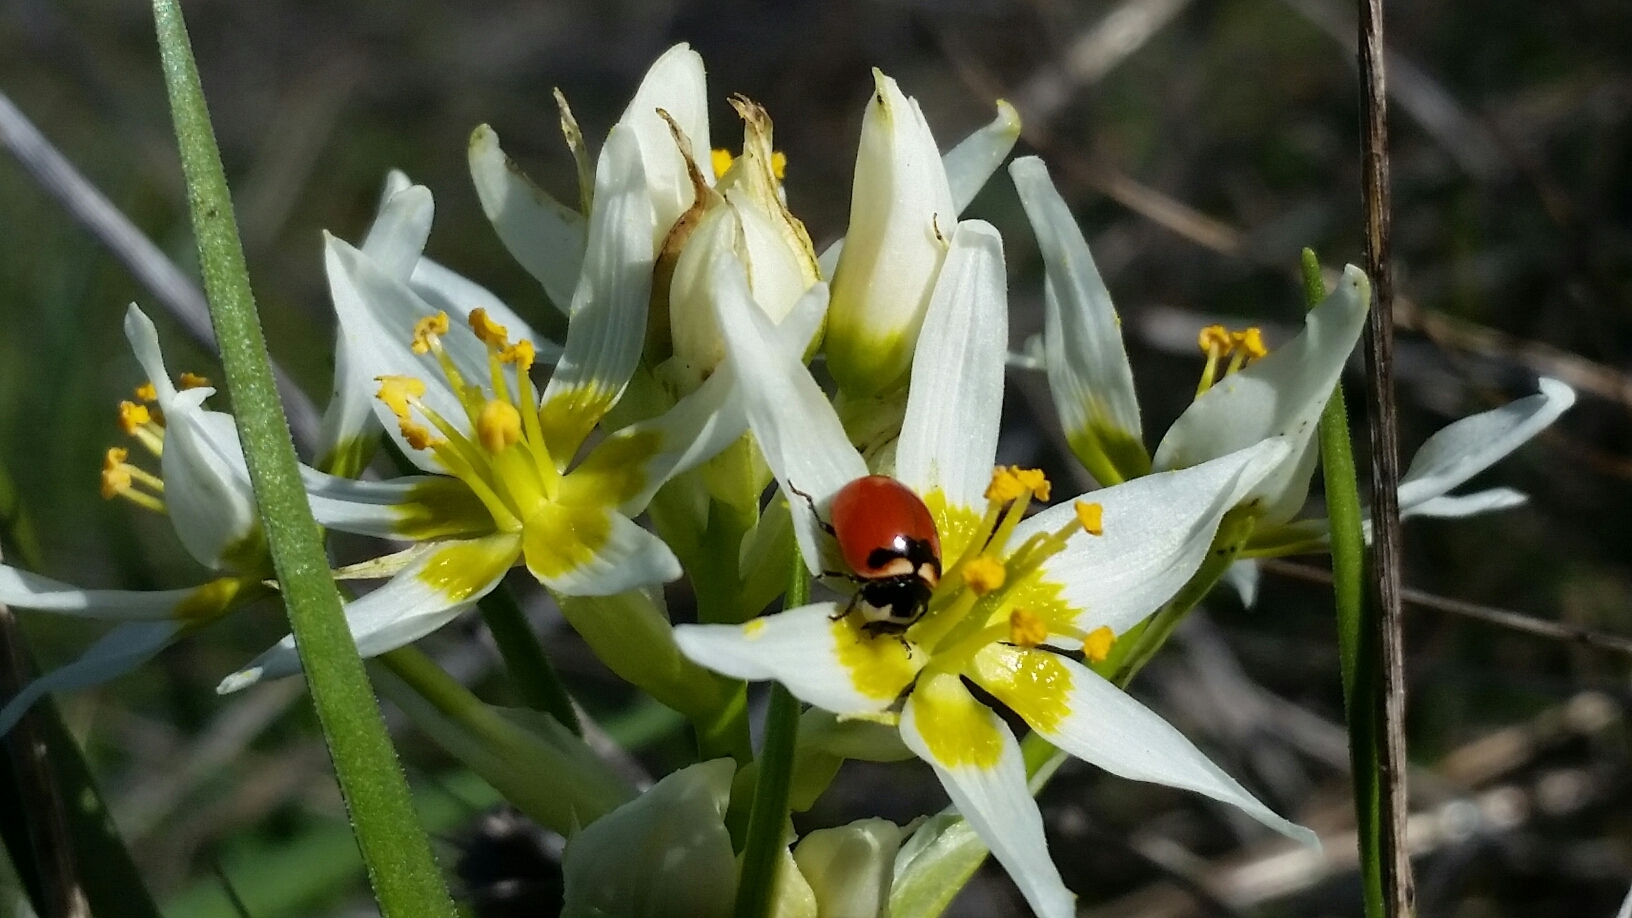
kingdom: Animalia
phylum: Arthropoda
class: Insecta
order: Coleoptera
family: Coccinellidae
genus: Coccinella
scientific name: Coccinella trifasciata
